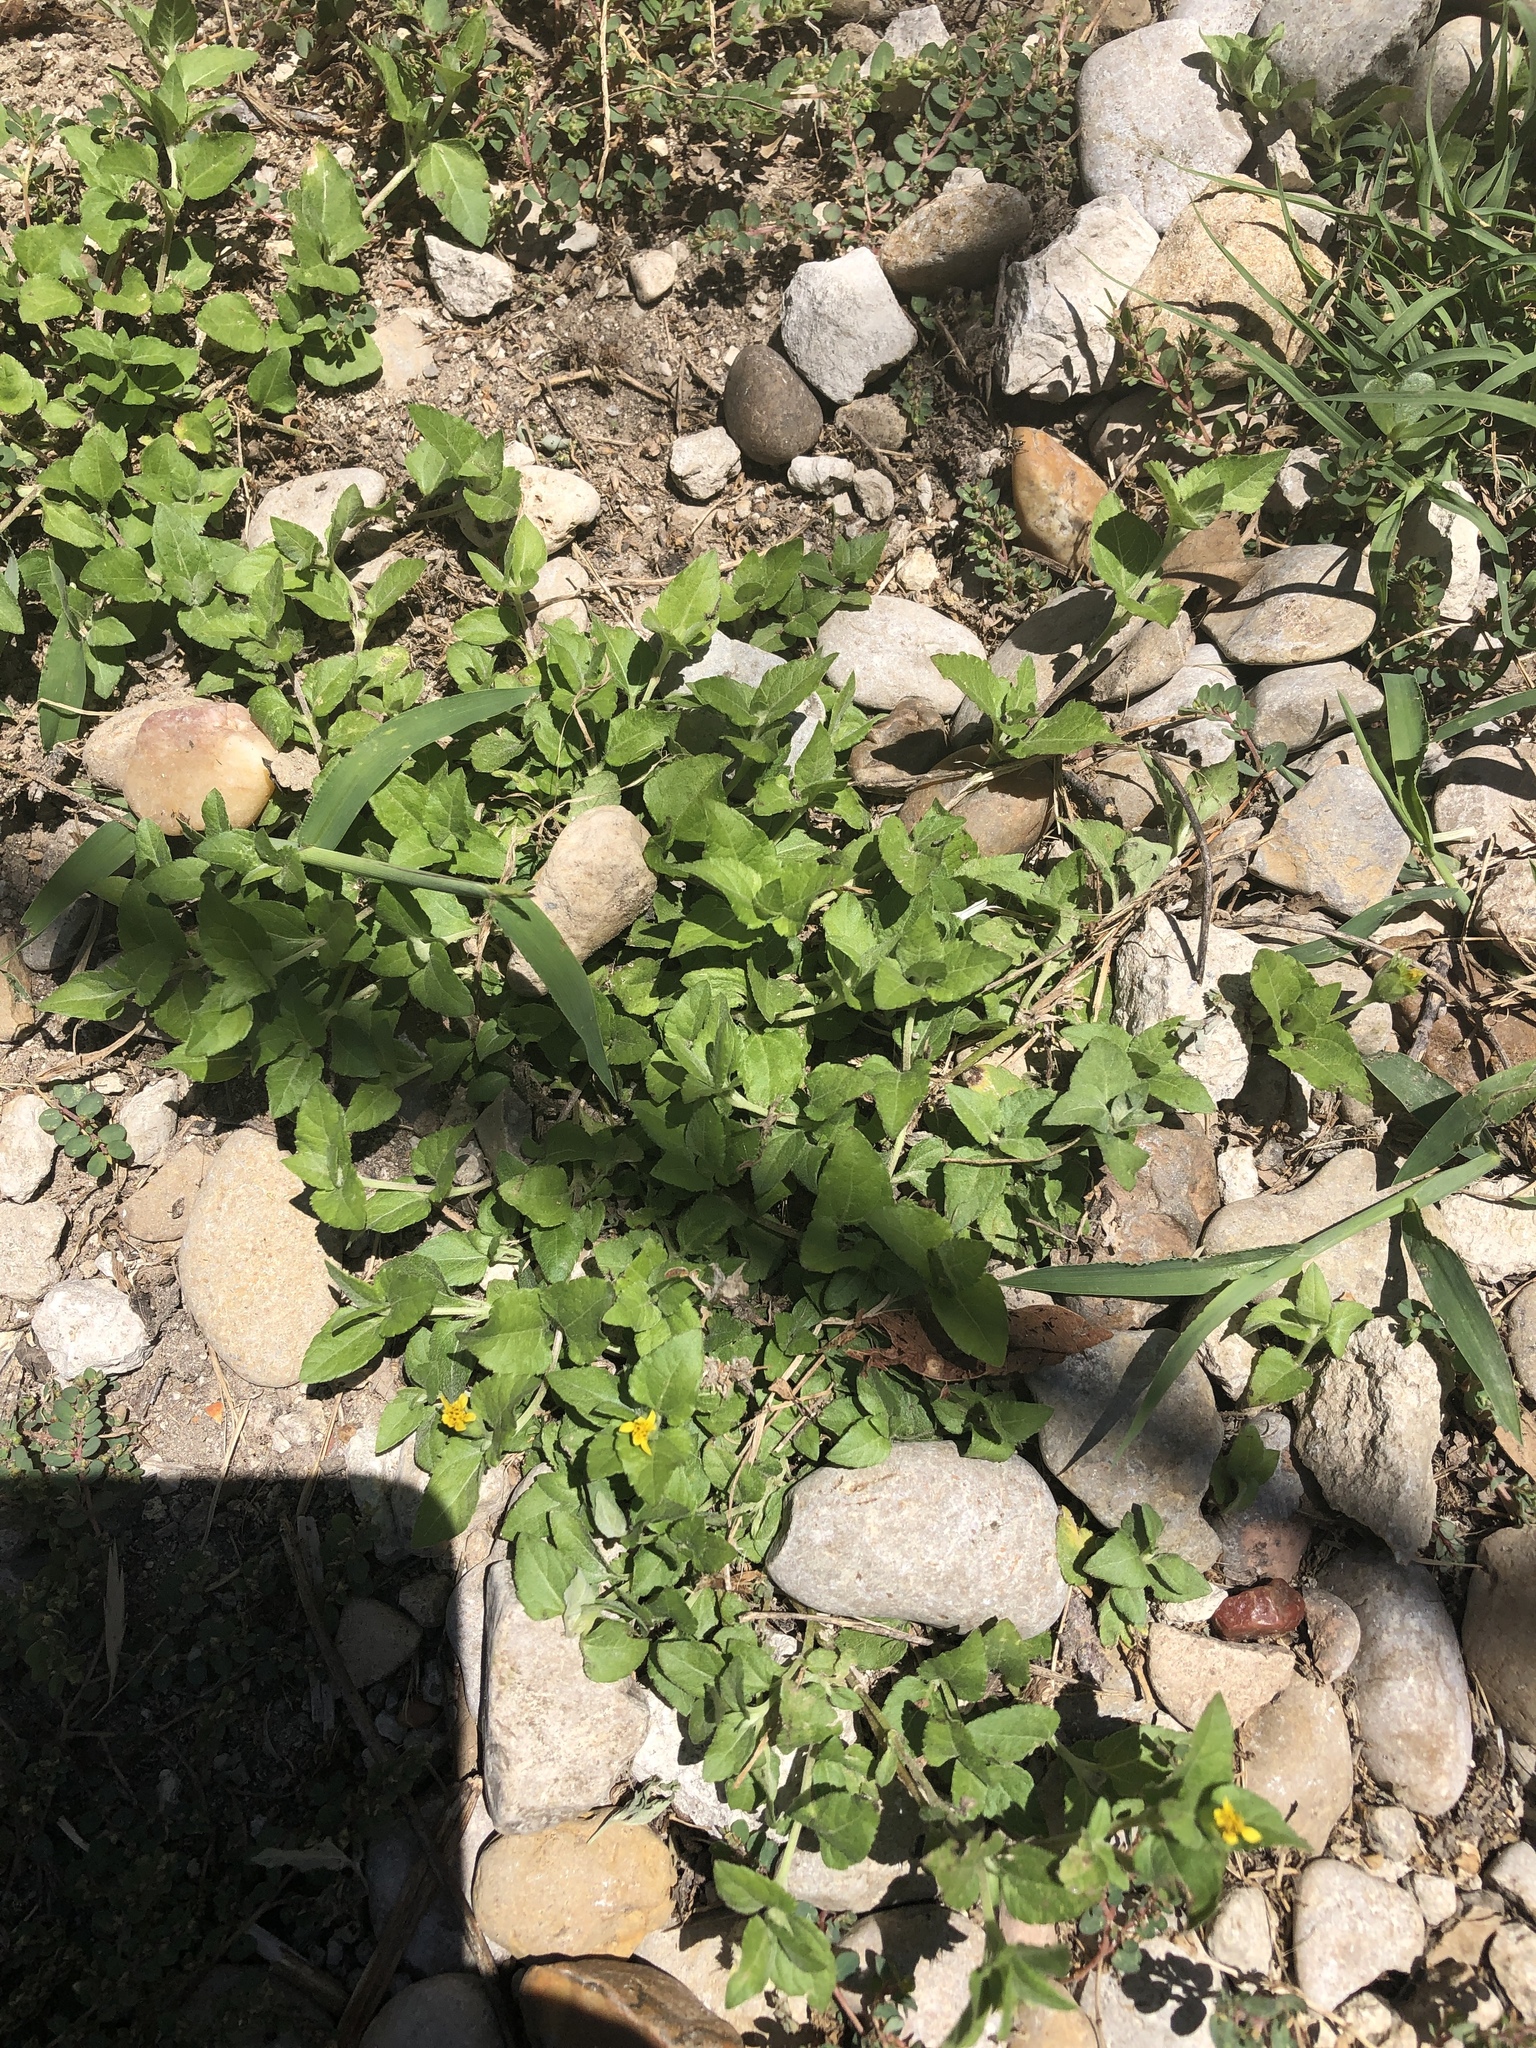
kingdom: Plantae
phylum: Tracheophyta
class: Magnoliopsida
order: Asterales
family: Asteraceae
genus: Calyptocarpus
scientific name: Calyptocarpus vialis
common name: Straggler daisy
